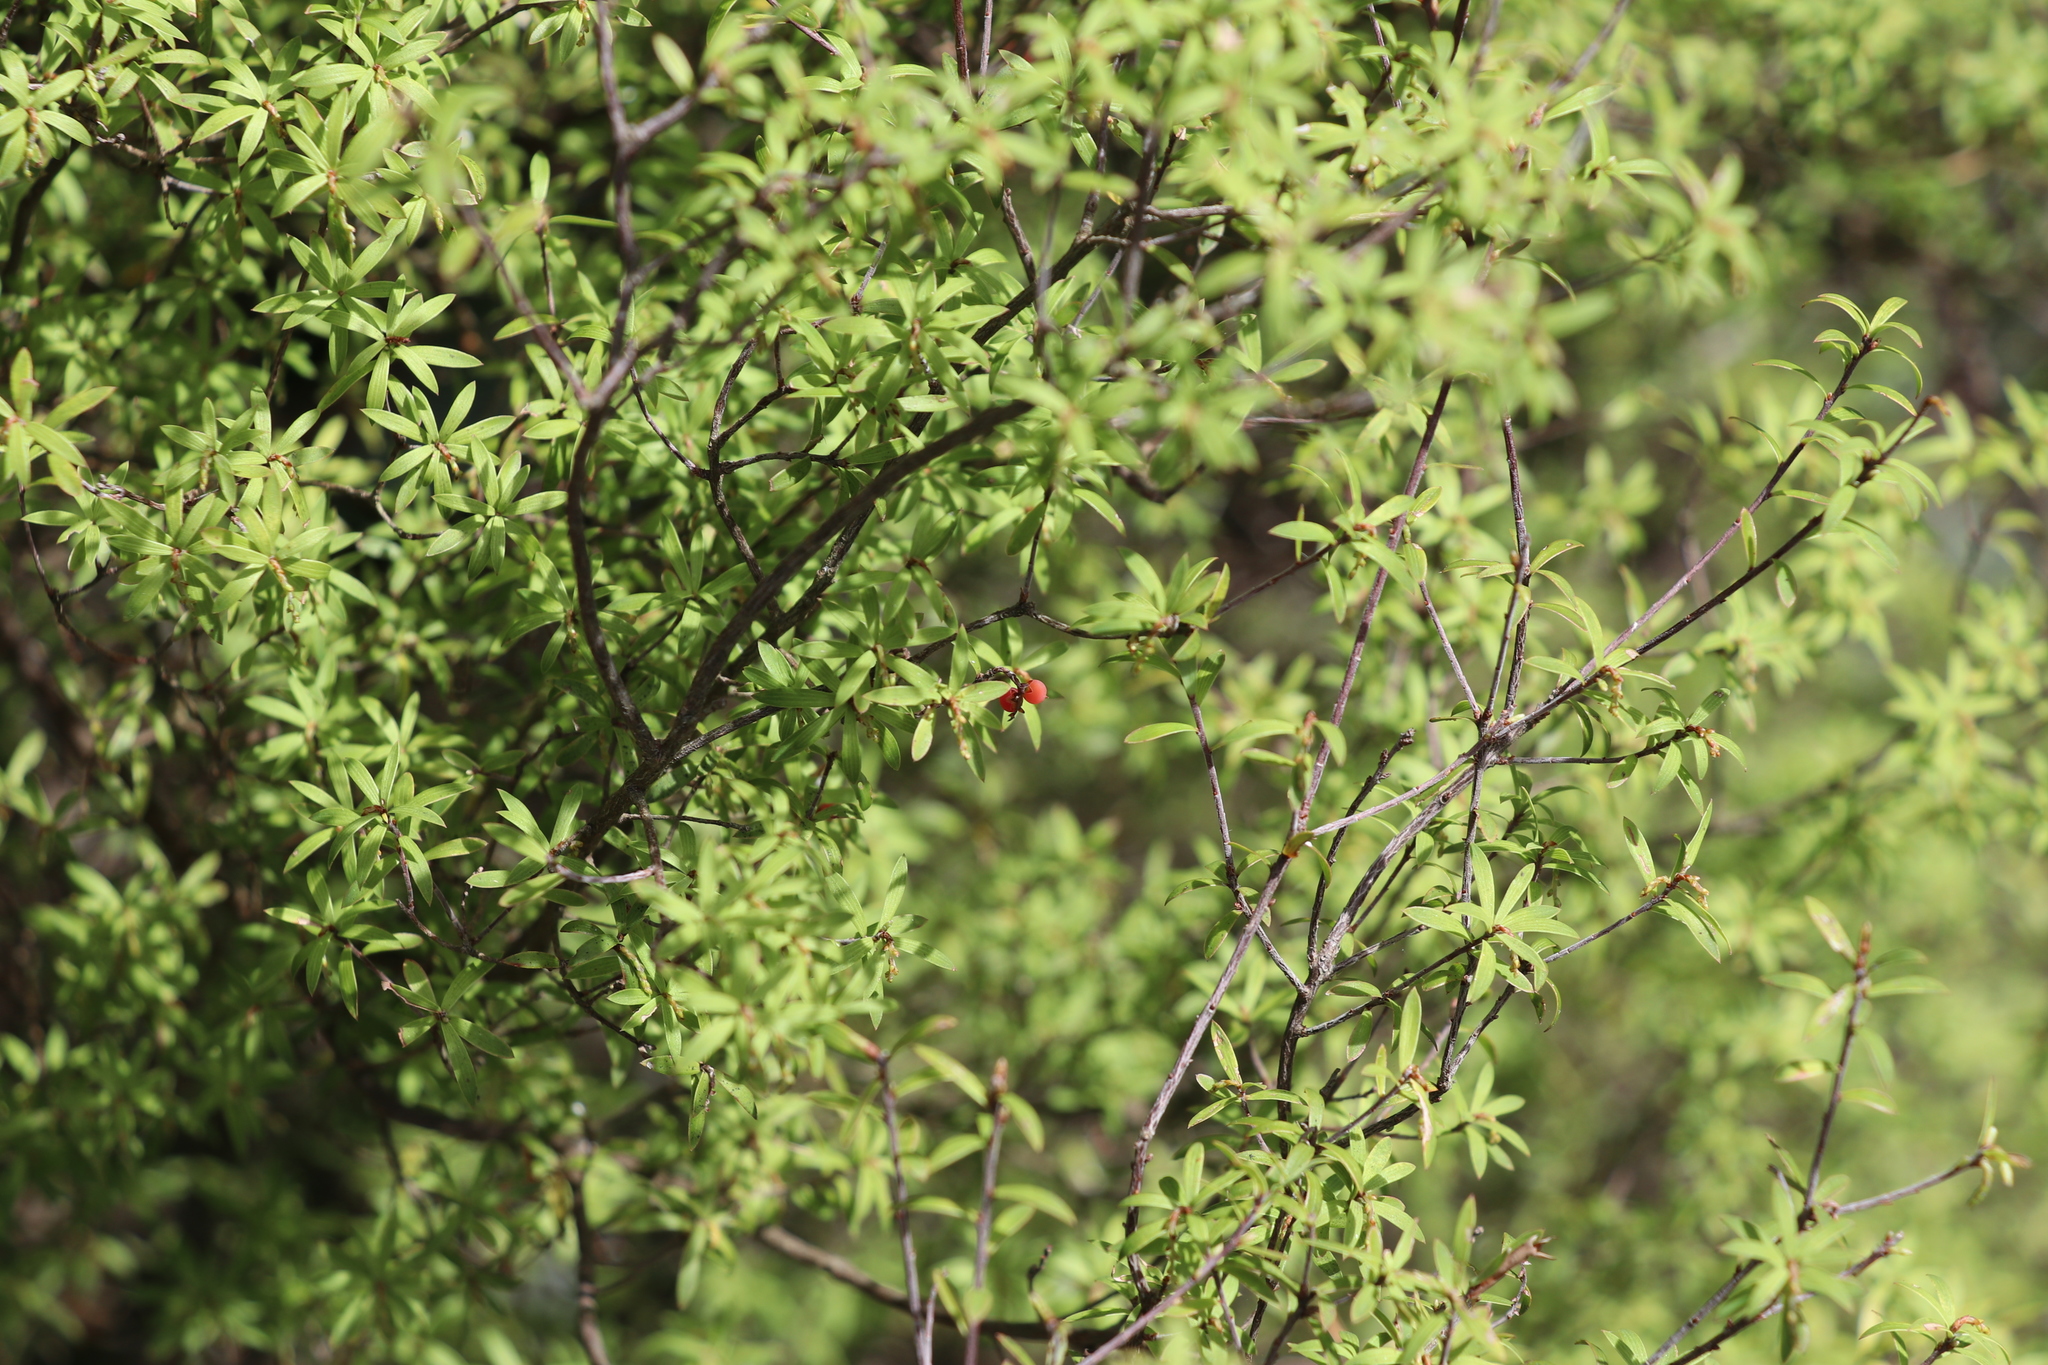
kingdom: Plantae
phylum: Tracheophyta
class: Magnoliopsida
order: Ericales
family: Ericaceae
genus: Leucopogon
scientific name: Leucopogon fasciculatus
